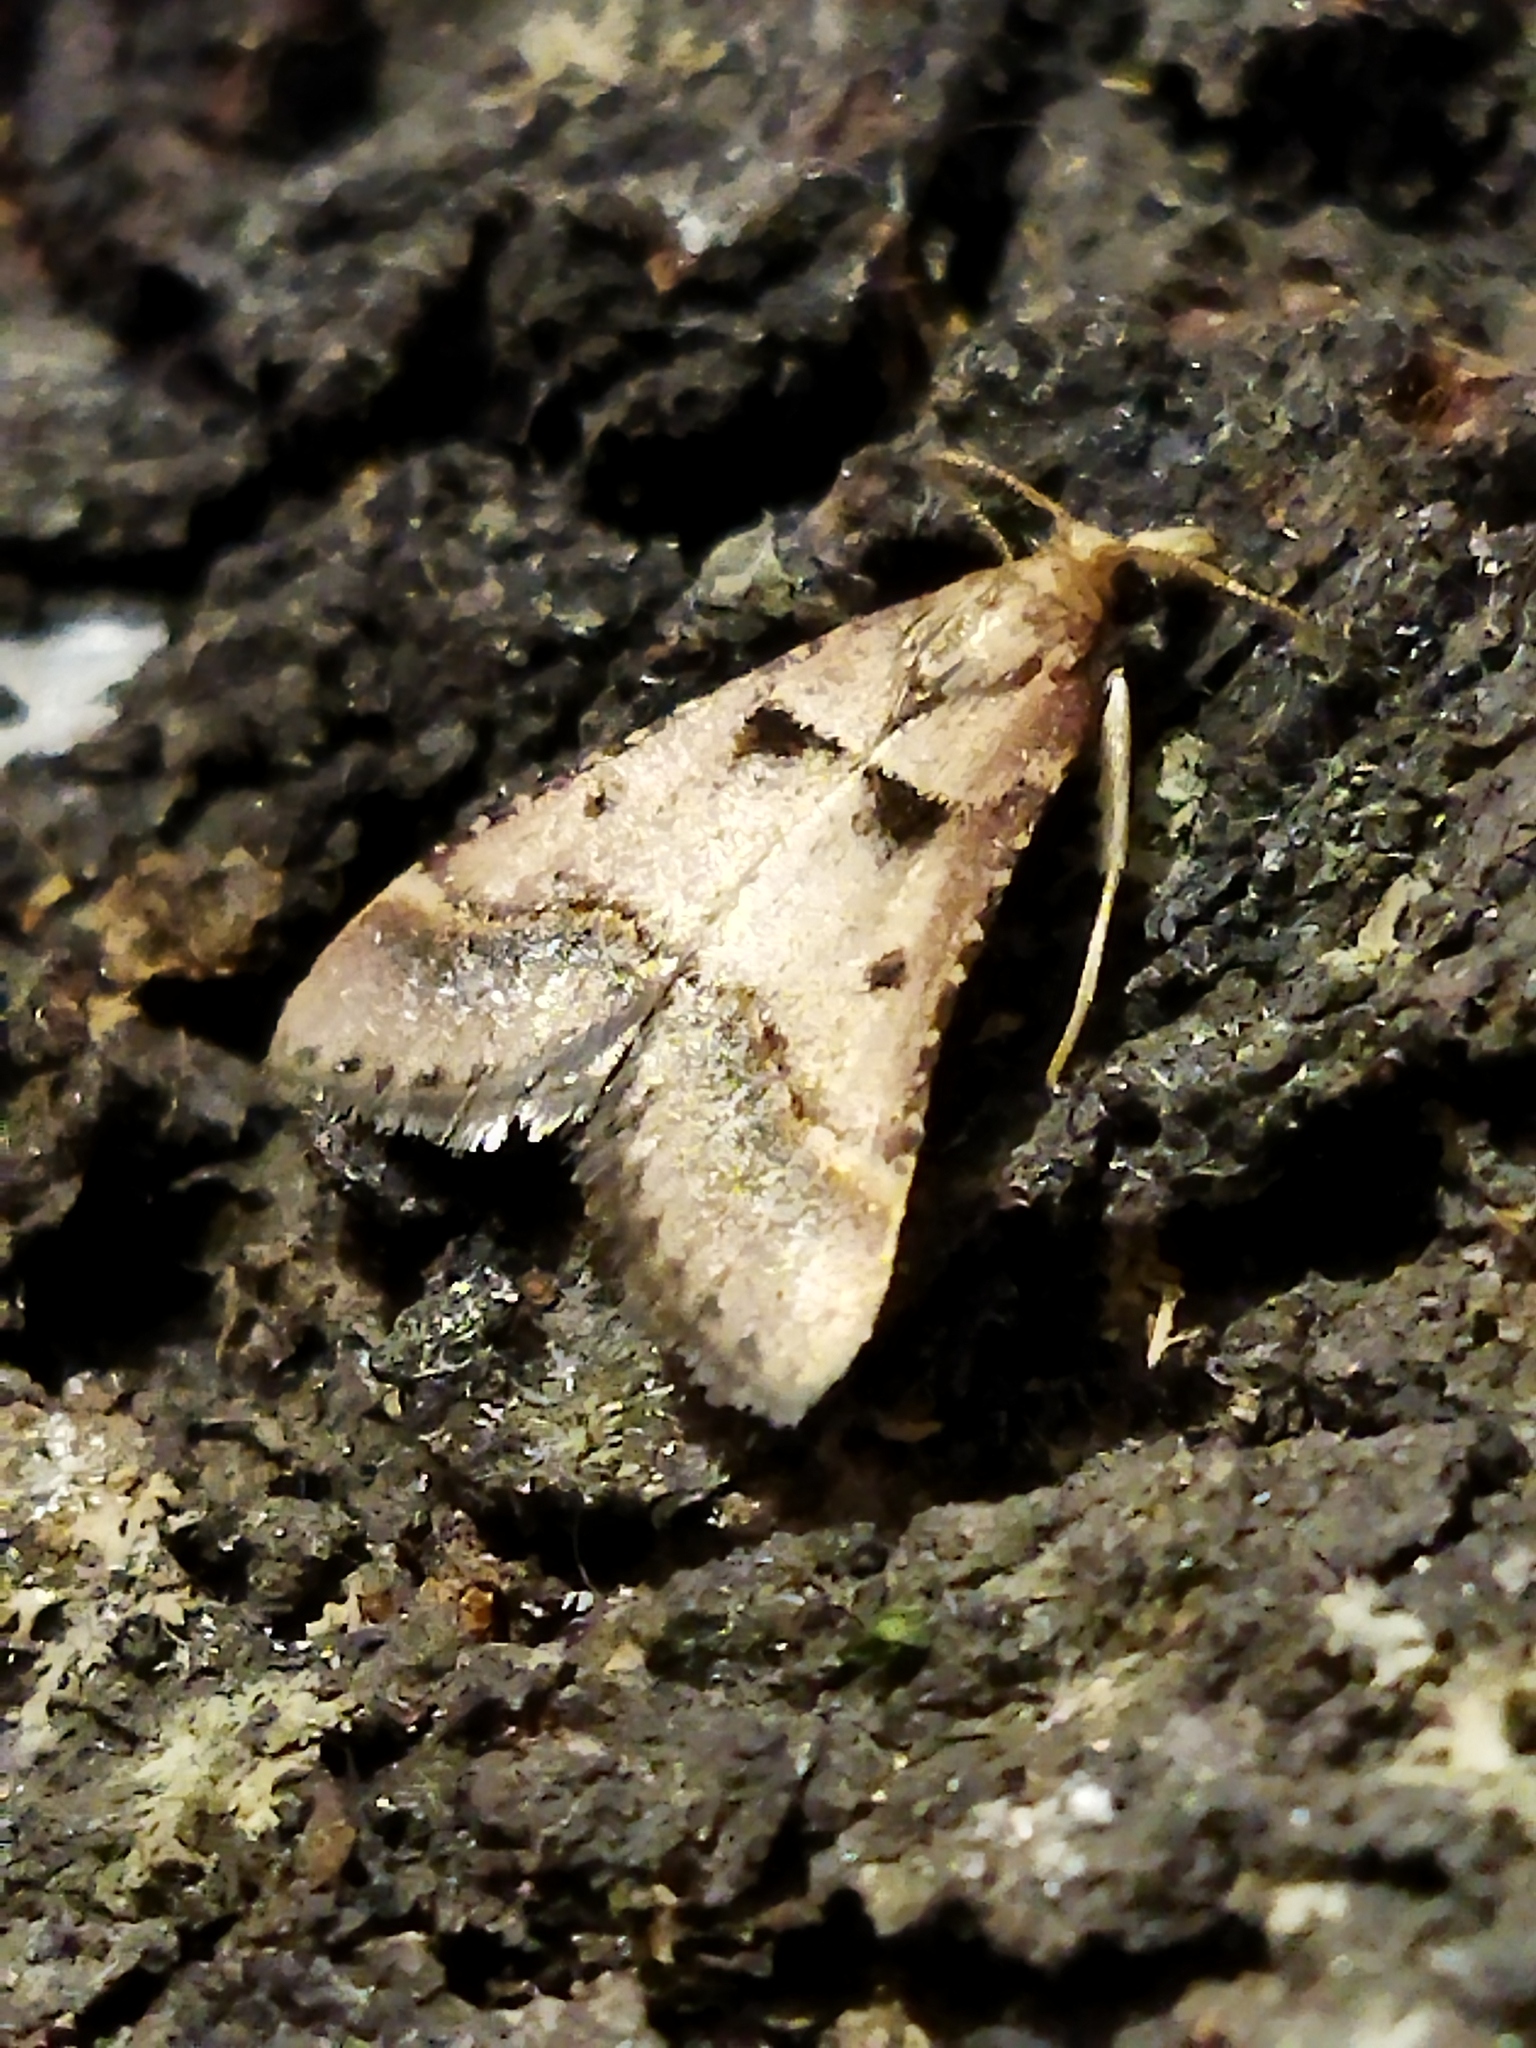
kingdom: Animalia
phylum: Arthropoda
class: Insecta
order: Lepidoptera
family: Pyralidae
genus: Stemmatophora
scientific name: Stemmatophora brunnealis
